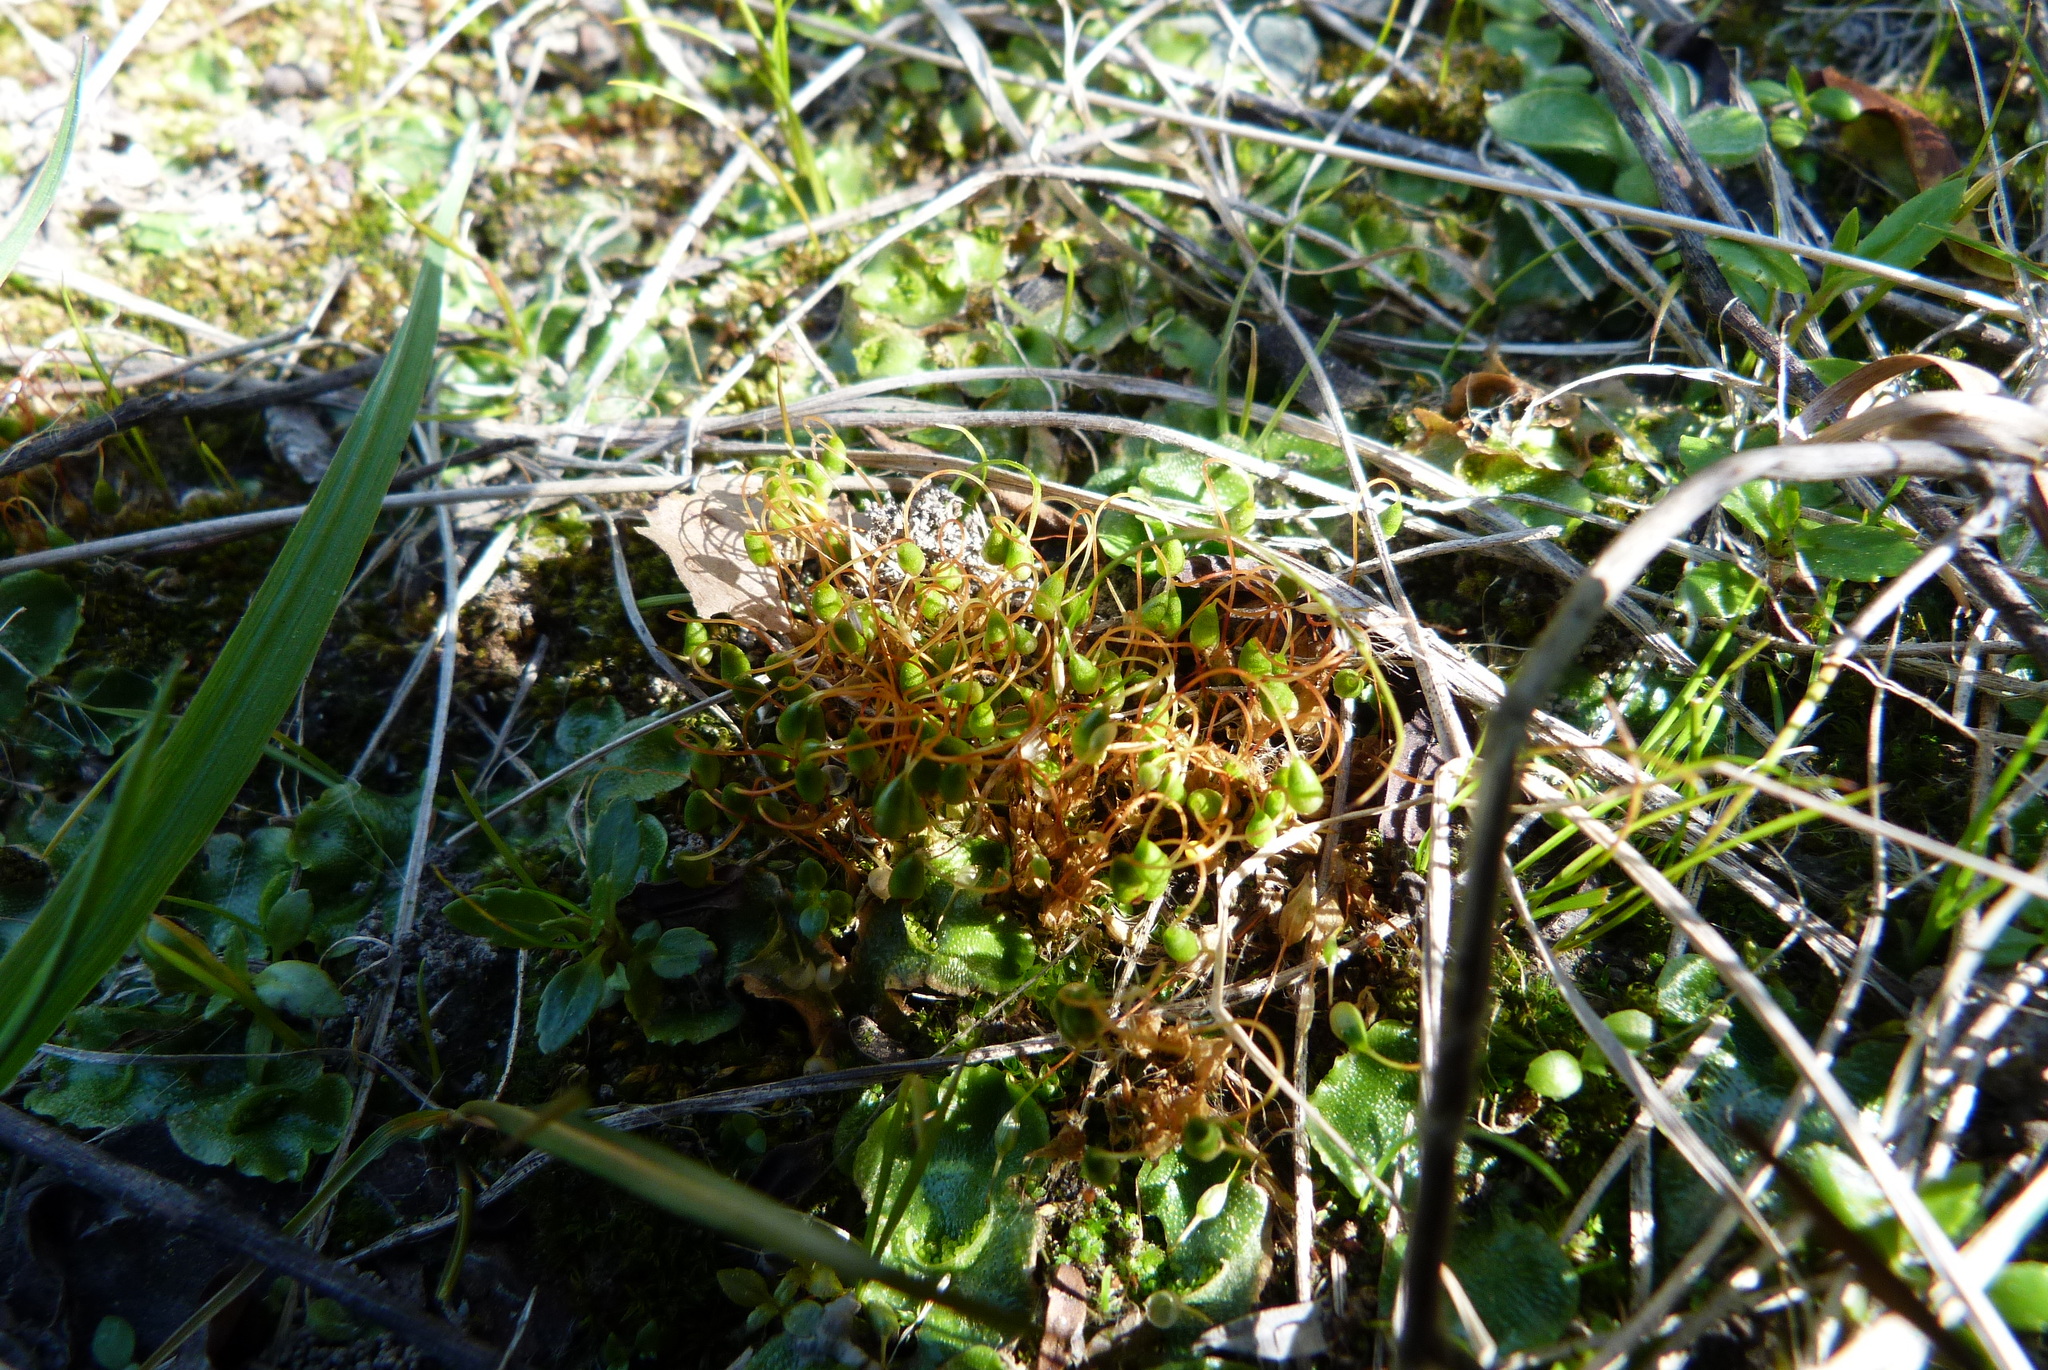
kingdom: Plantae
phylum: Bryophyta
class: Bryopsida
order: Funariales
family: Funariaceae
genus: Funaria
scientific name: Funaria hygrometrica
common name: Common cord moss
